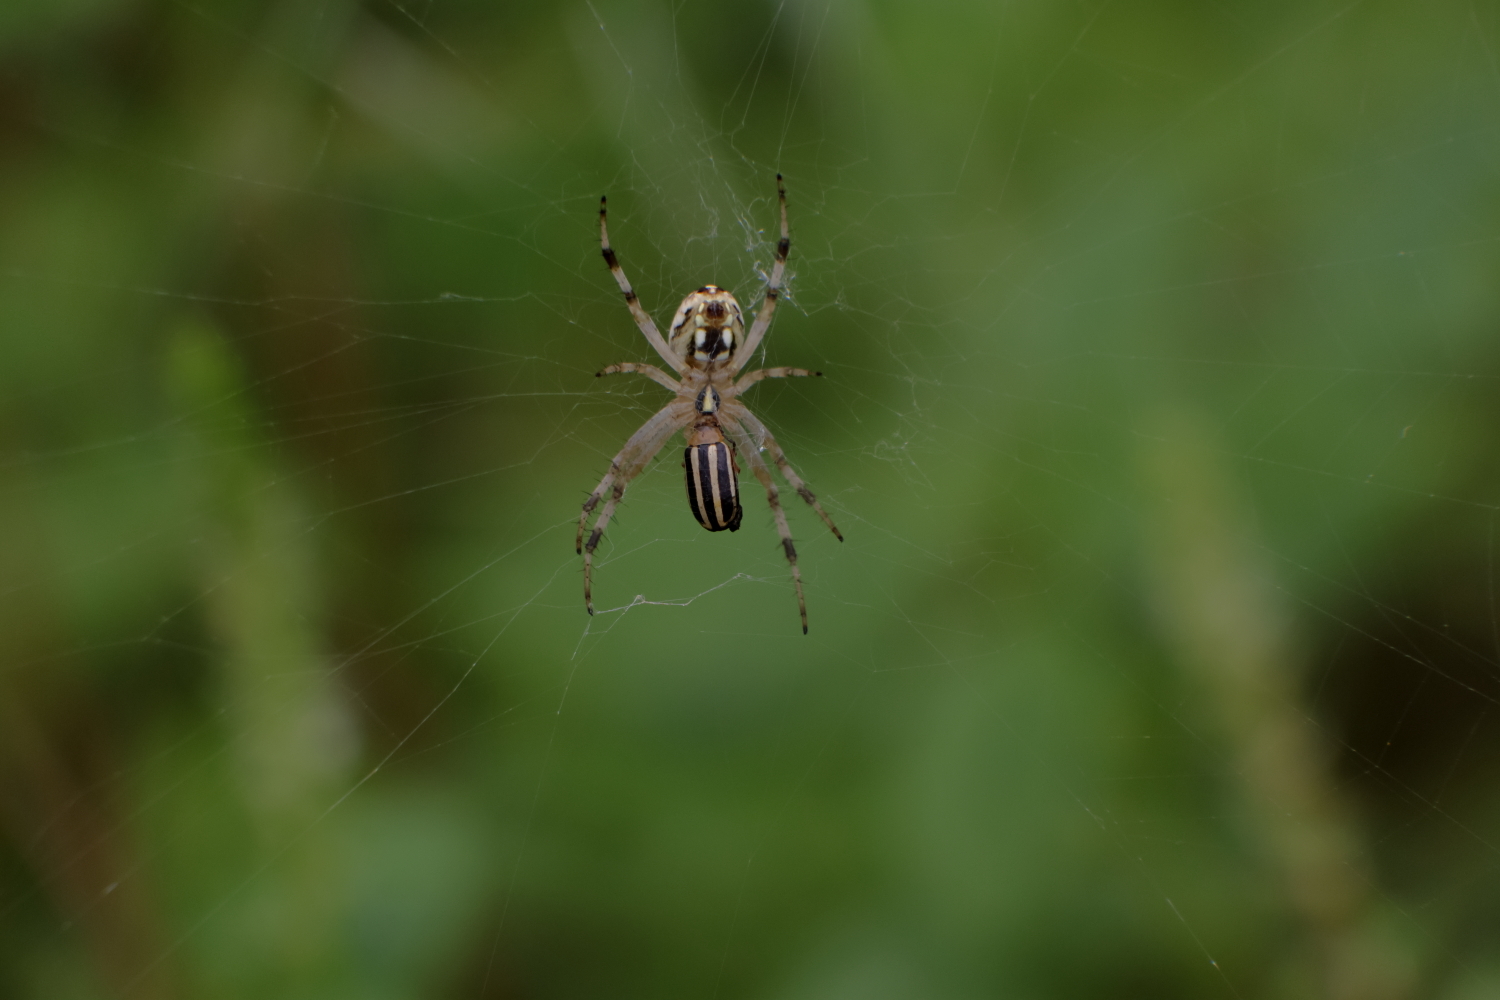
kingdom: Animalia
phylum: Arthropoda
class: Insecta
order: Coleoptera
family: Chrysomelidae
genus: Disonycha
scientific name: Disonycha glabrata
